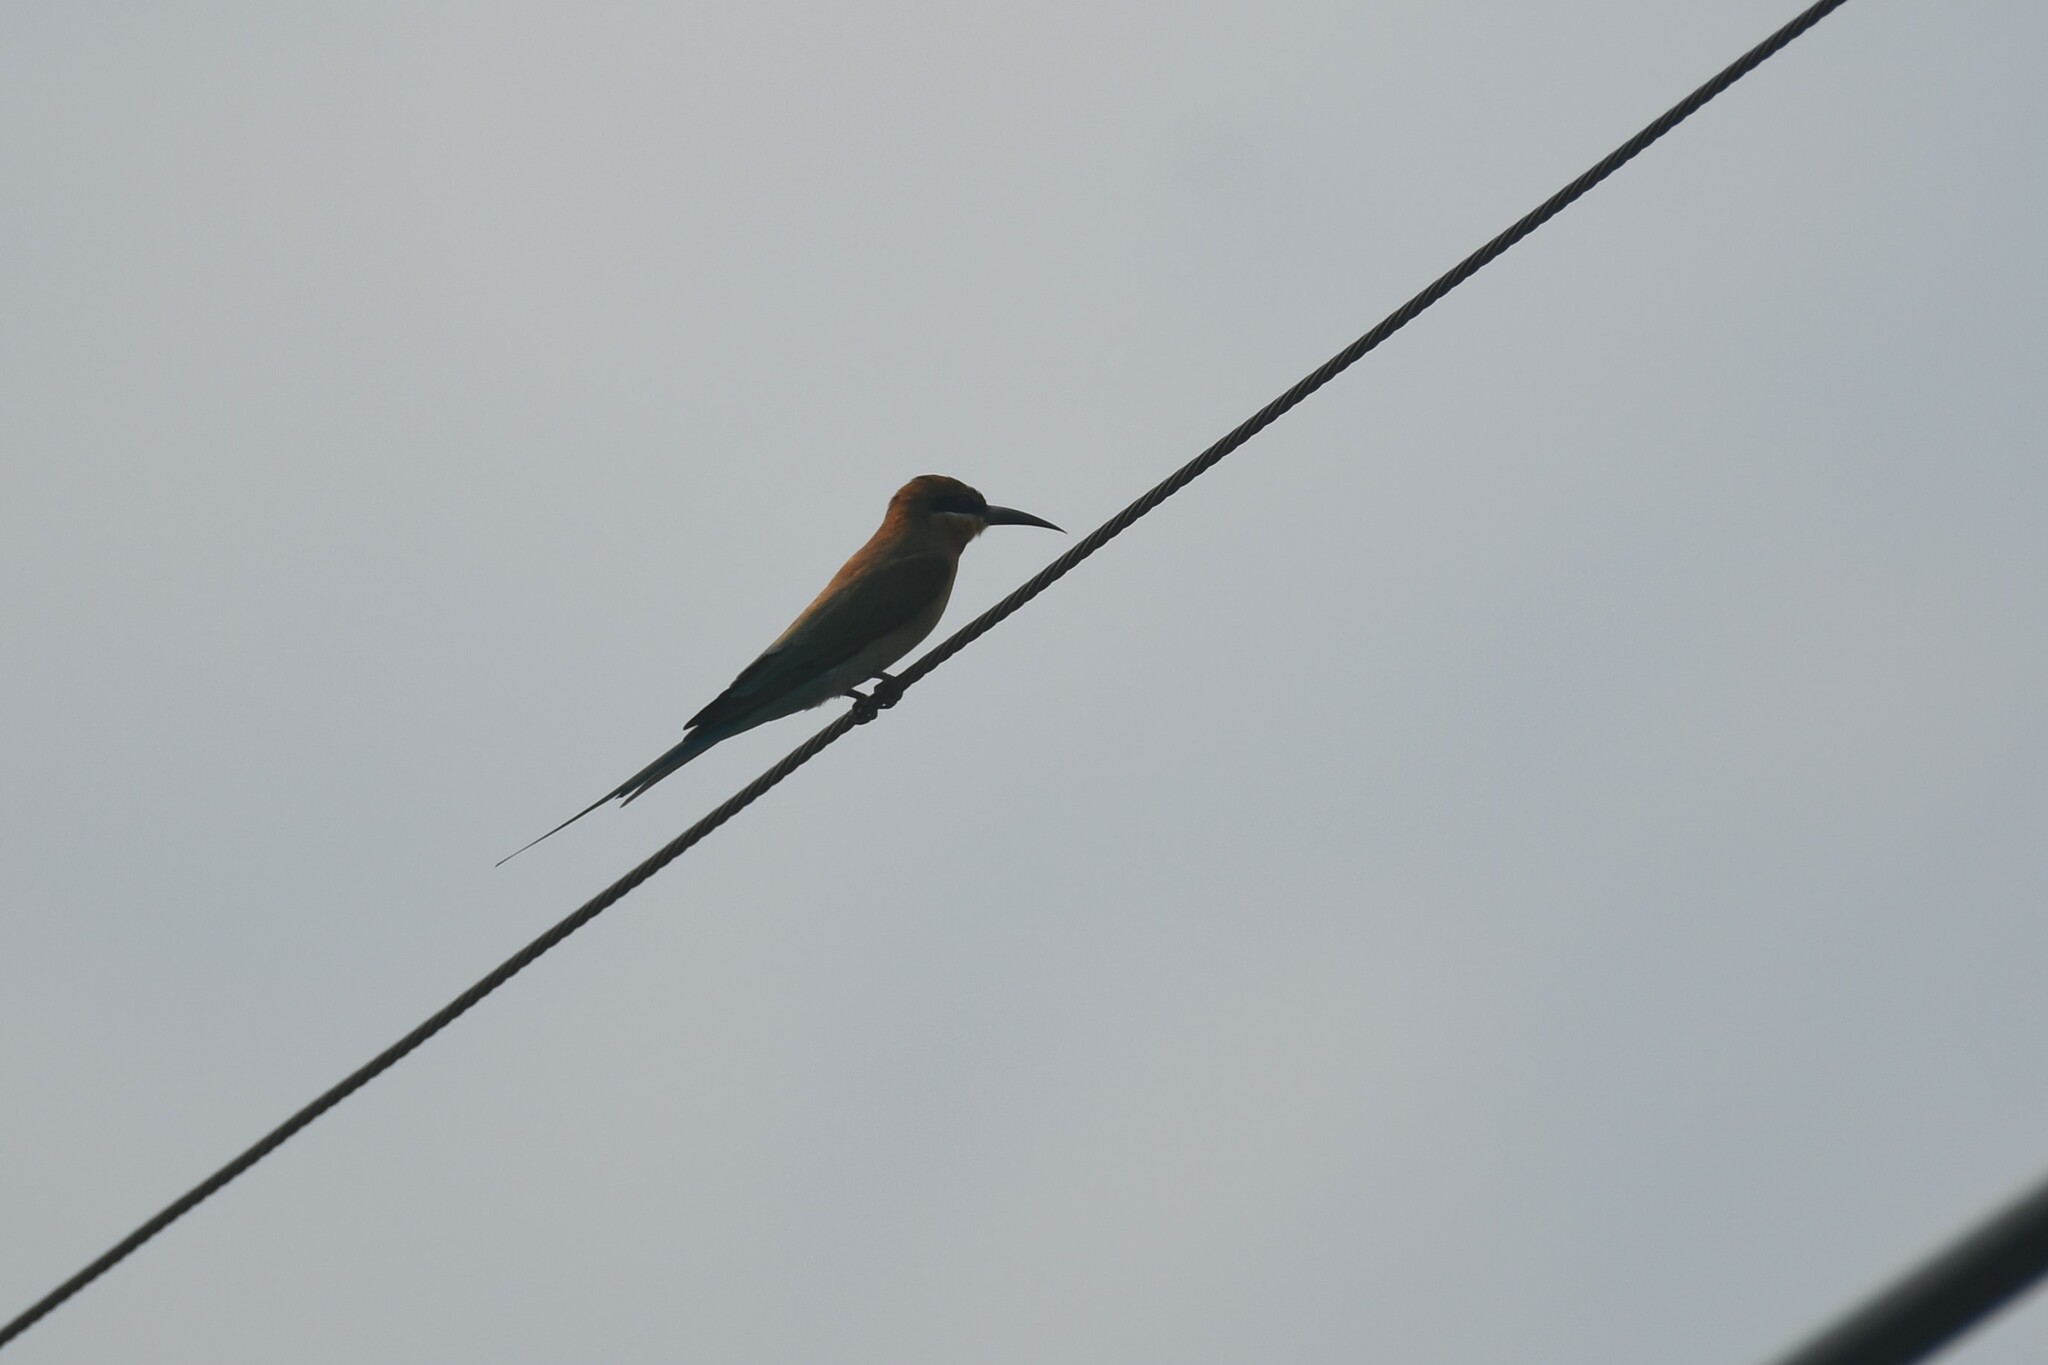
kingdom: Animalia
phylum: Chordata
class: Aves
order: Coraciiformes
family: Meropidae
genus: Merops
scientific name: Merops philippinus
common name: Blue-tailed bee-eater
